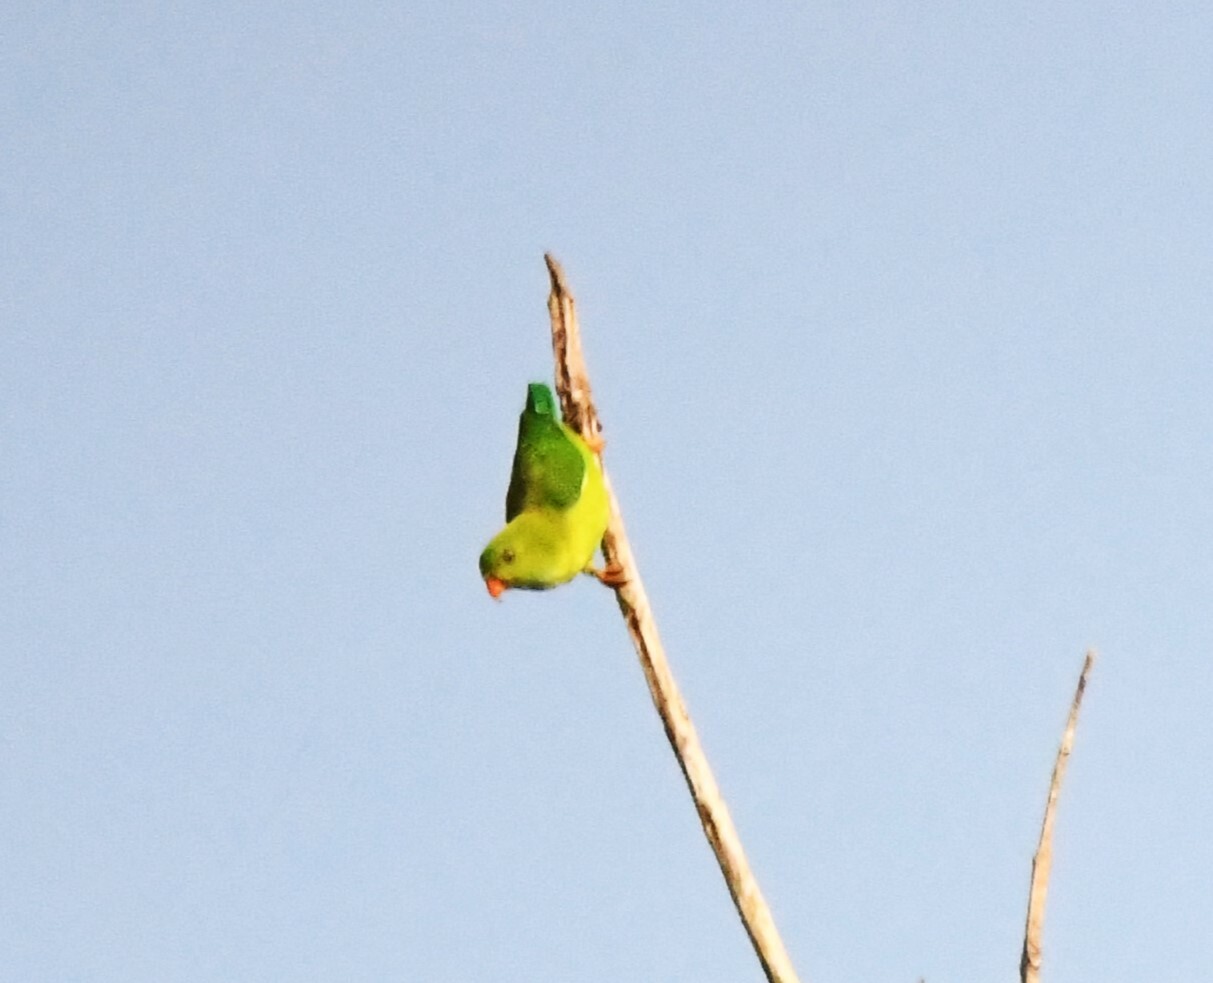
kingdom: Animalia
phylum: Chordata
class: Aves
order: Psittaciformes
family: Psittacidae
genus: Loriculus
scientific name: Loriculus vernalis
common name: Vernal hanging parrot
